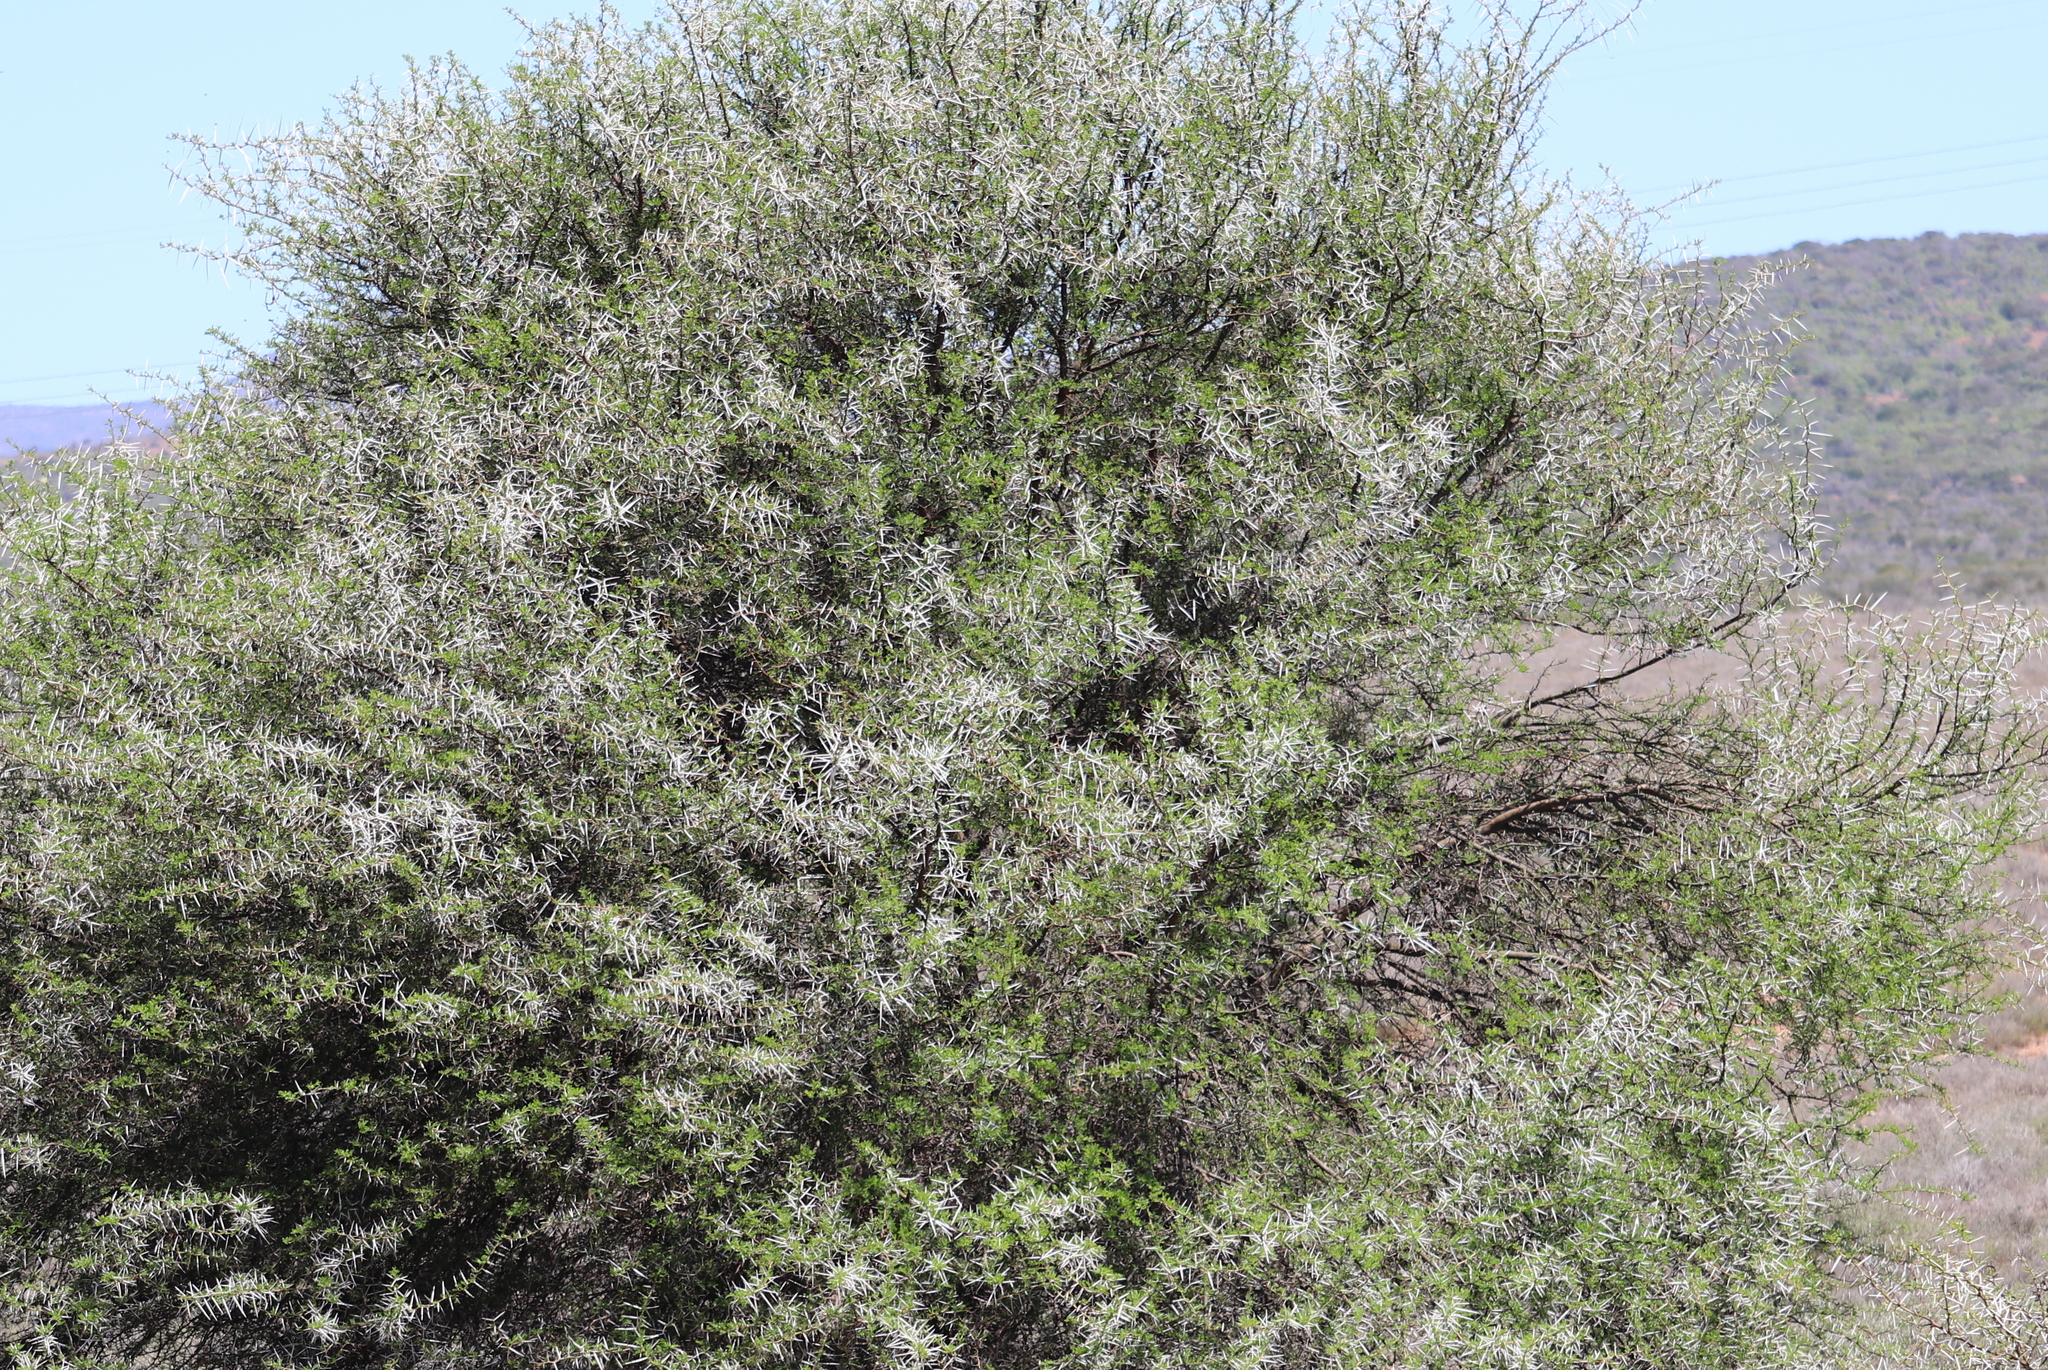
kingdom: Plantae
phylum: Tracheophyta
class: Magnoliopsida
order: Fabales
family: Fabaceae
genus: Vachellia
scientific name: Vachellia karroo
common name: Sweet thorn
